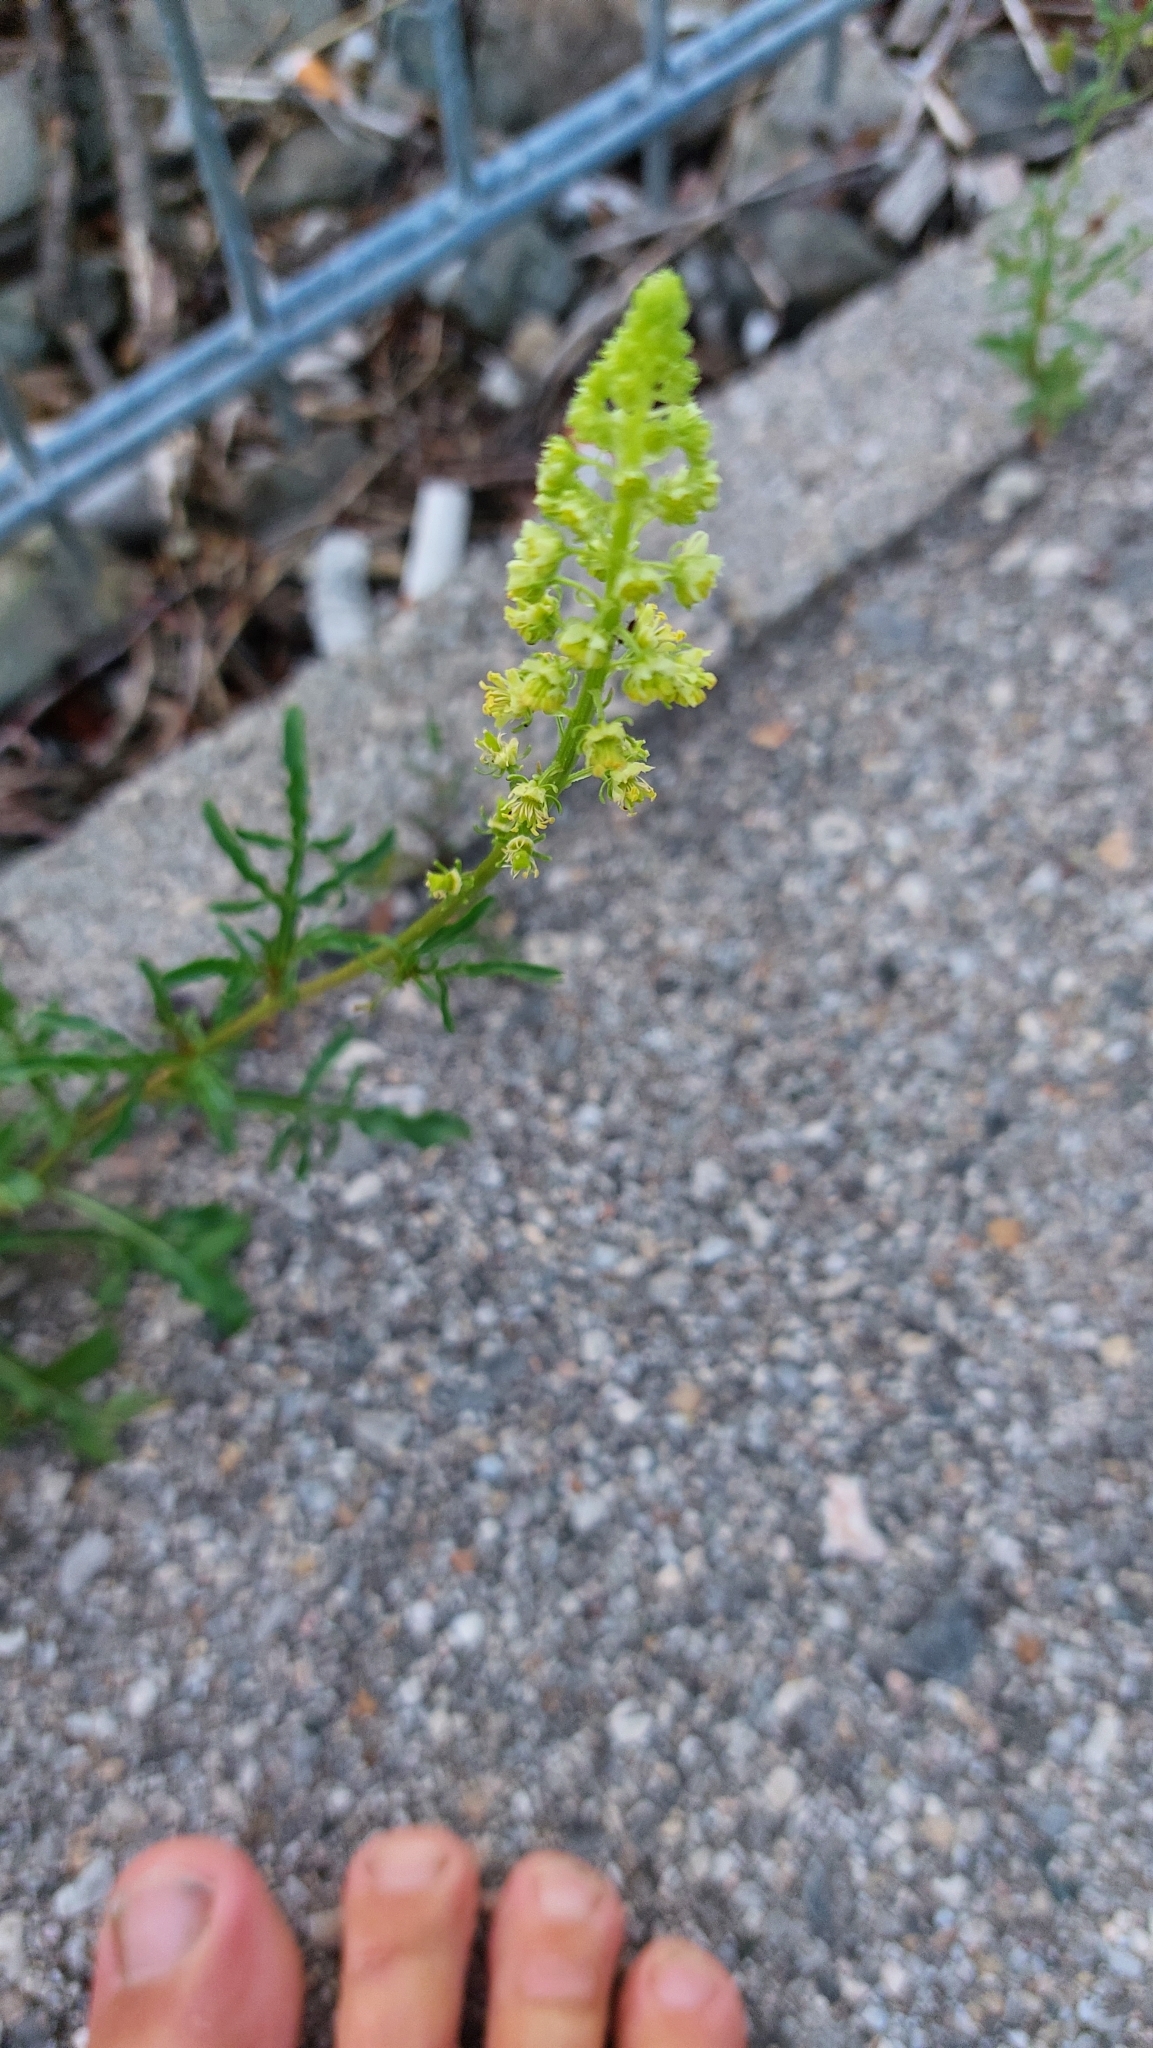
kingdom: Plantae
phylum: Tracheophyta
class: Magnoliopsida
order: Brassicales
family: Resedaceae
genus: Reseda
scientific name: Reseda lutea
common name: Wild mignonette
